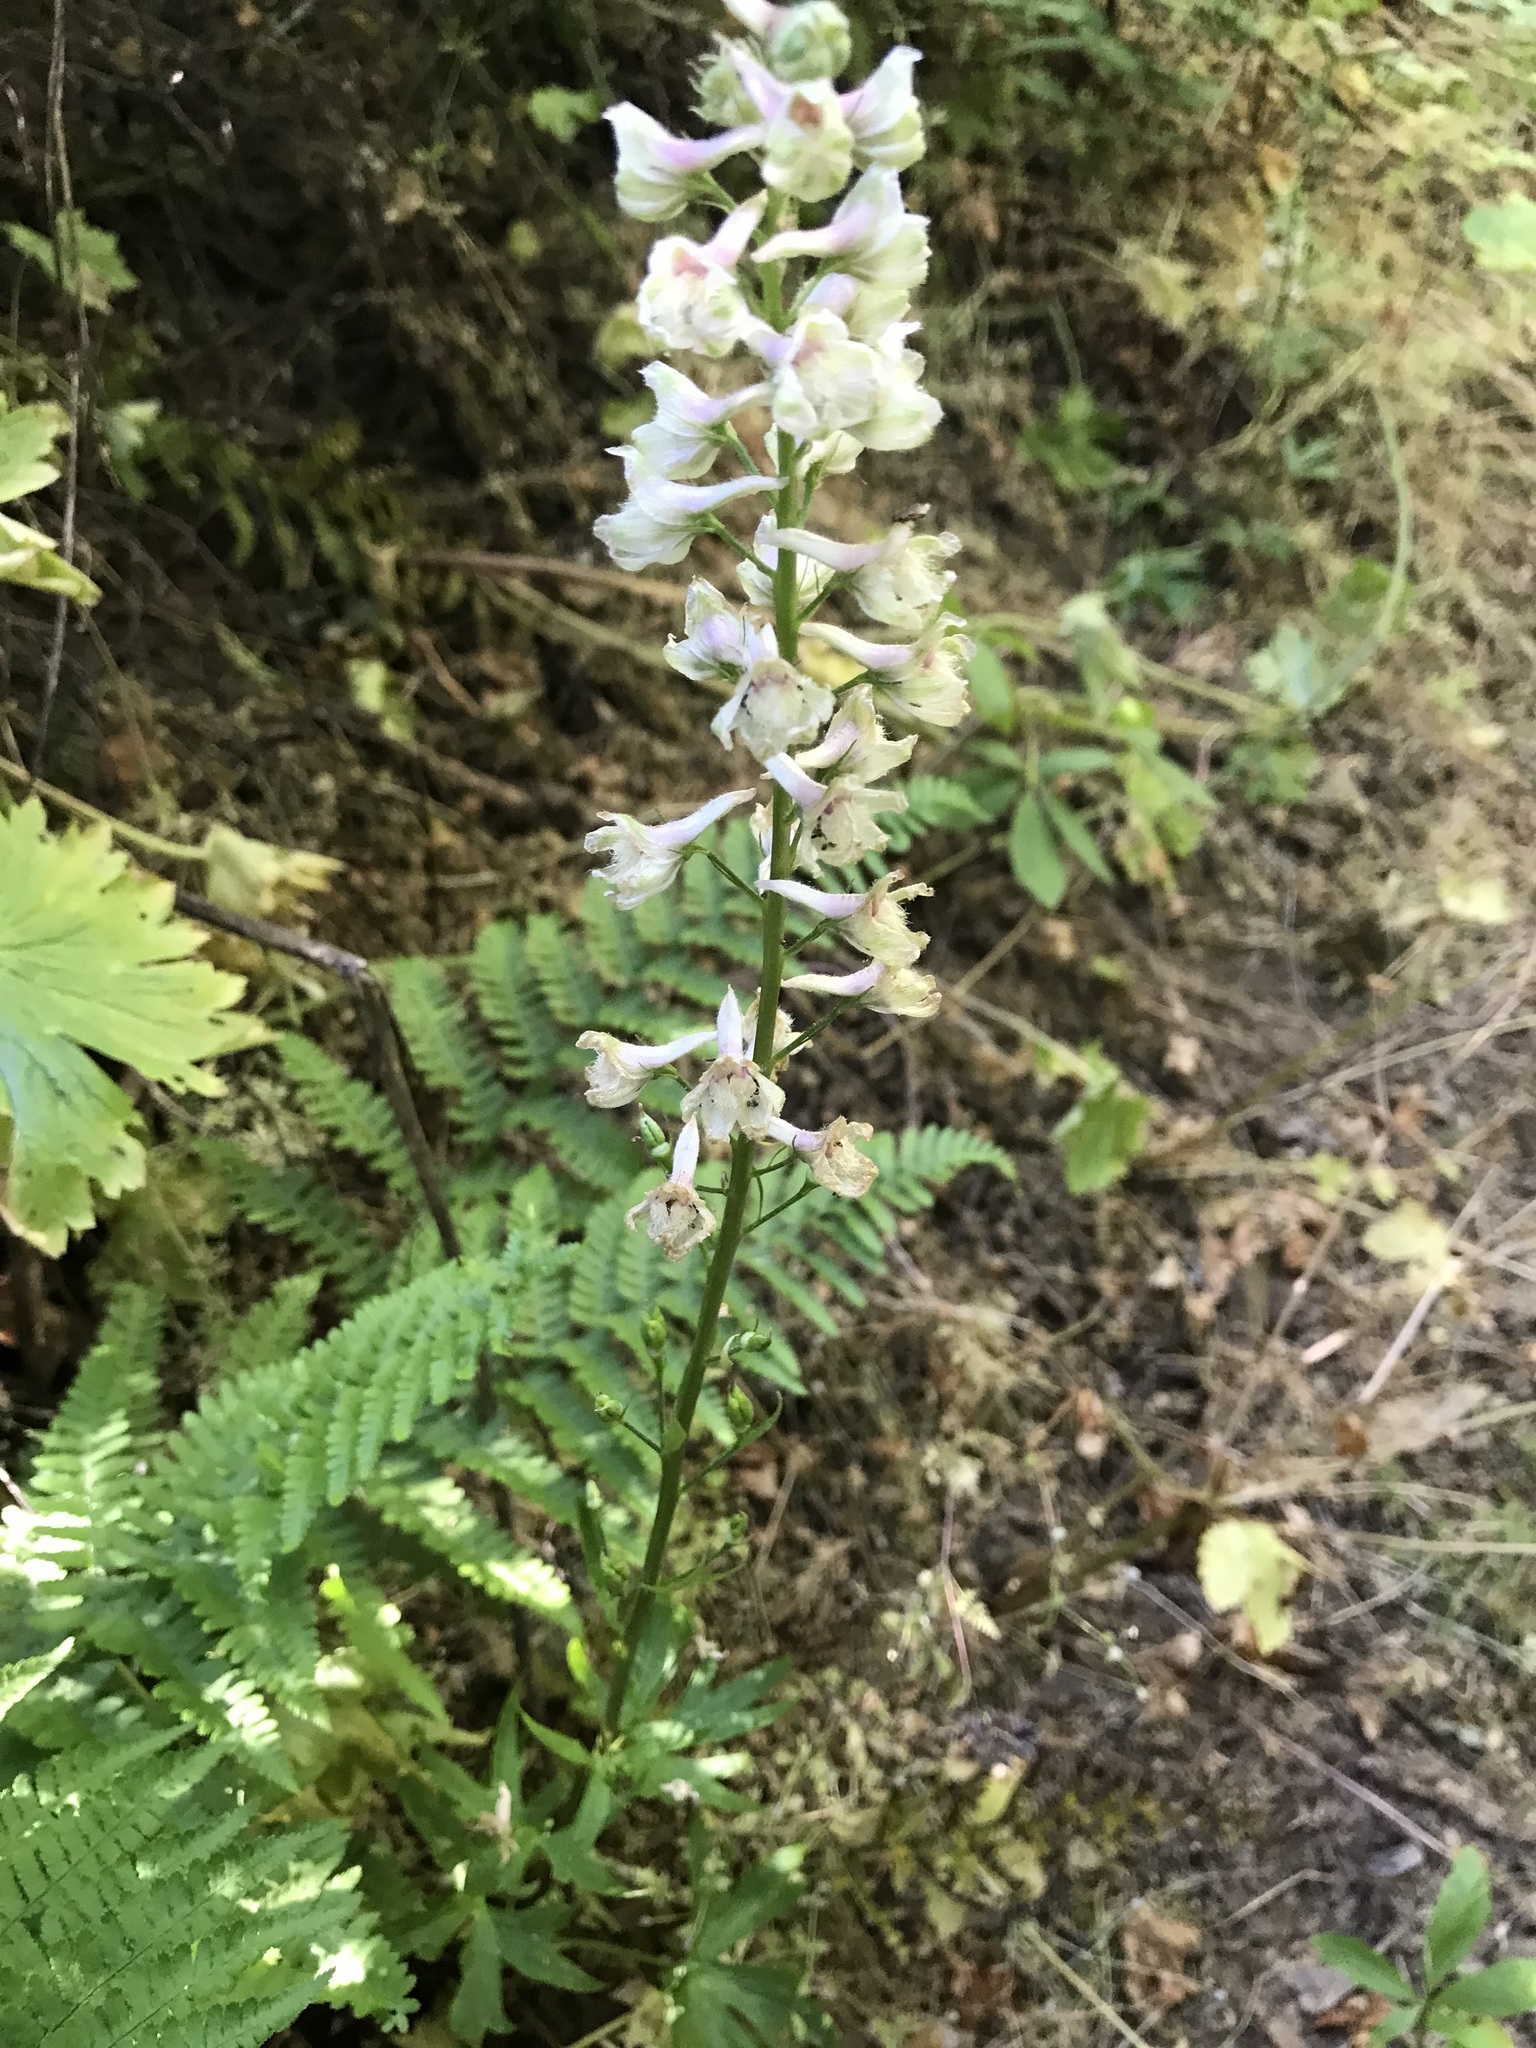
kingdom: Plantae
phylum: Tracheophyta
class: Magnoliopsida
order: Ranunculales
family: Ranunculaceae
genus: Delphinium
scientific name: Delphinium californicum
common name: California larkspur
